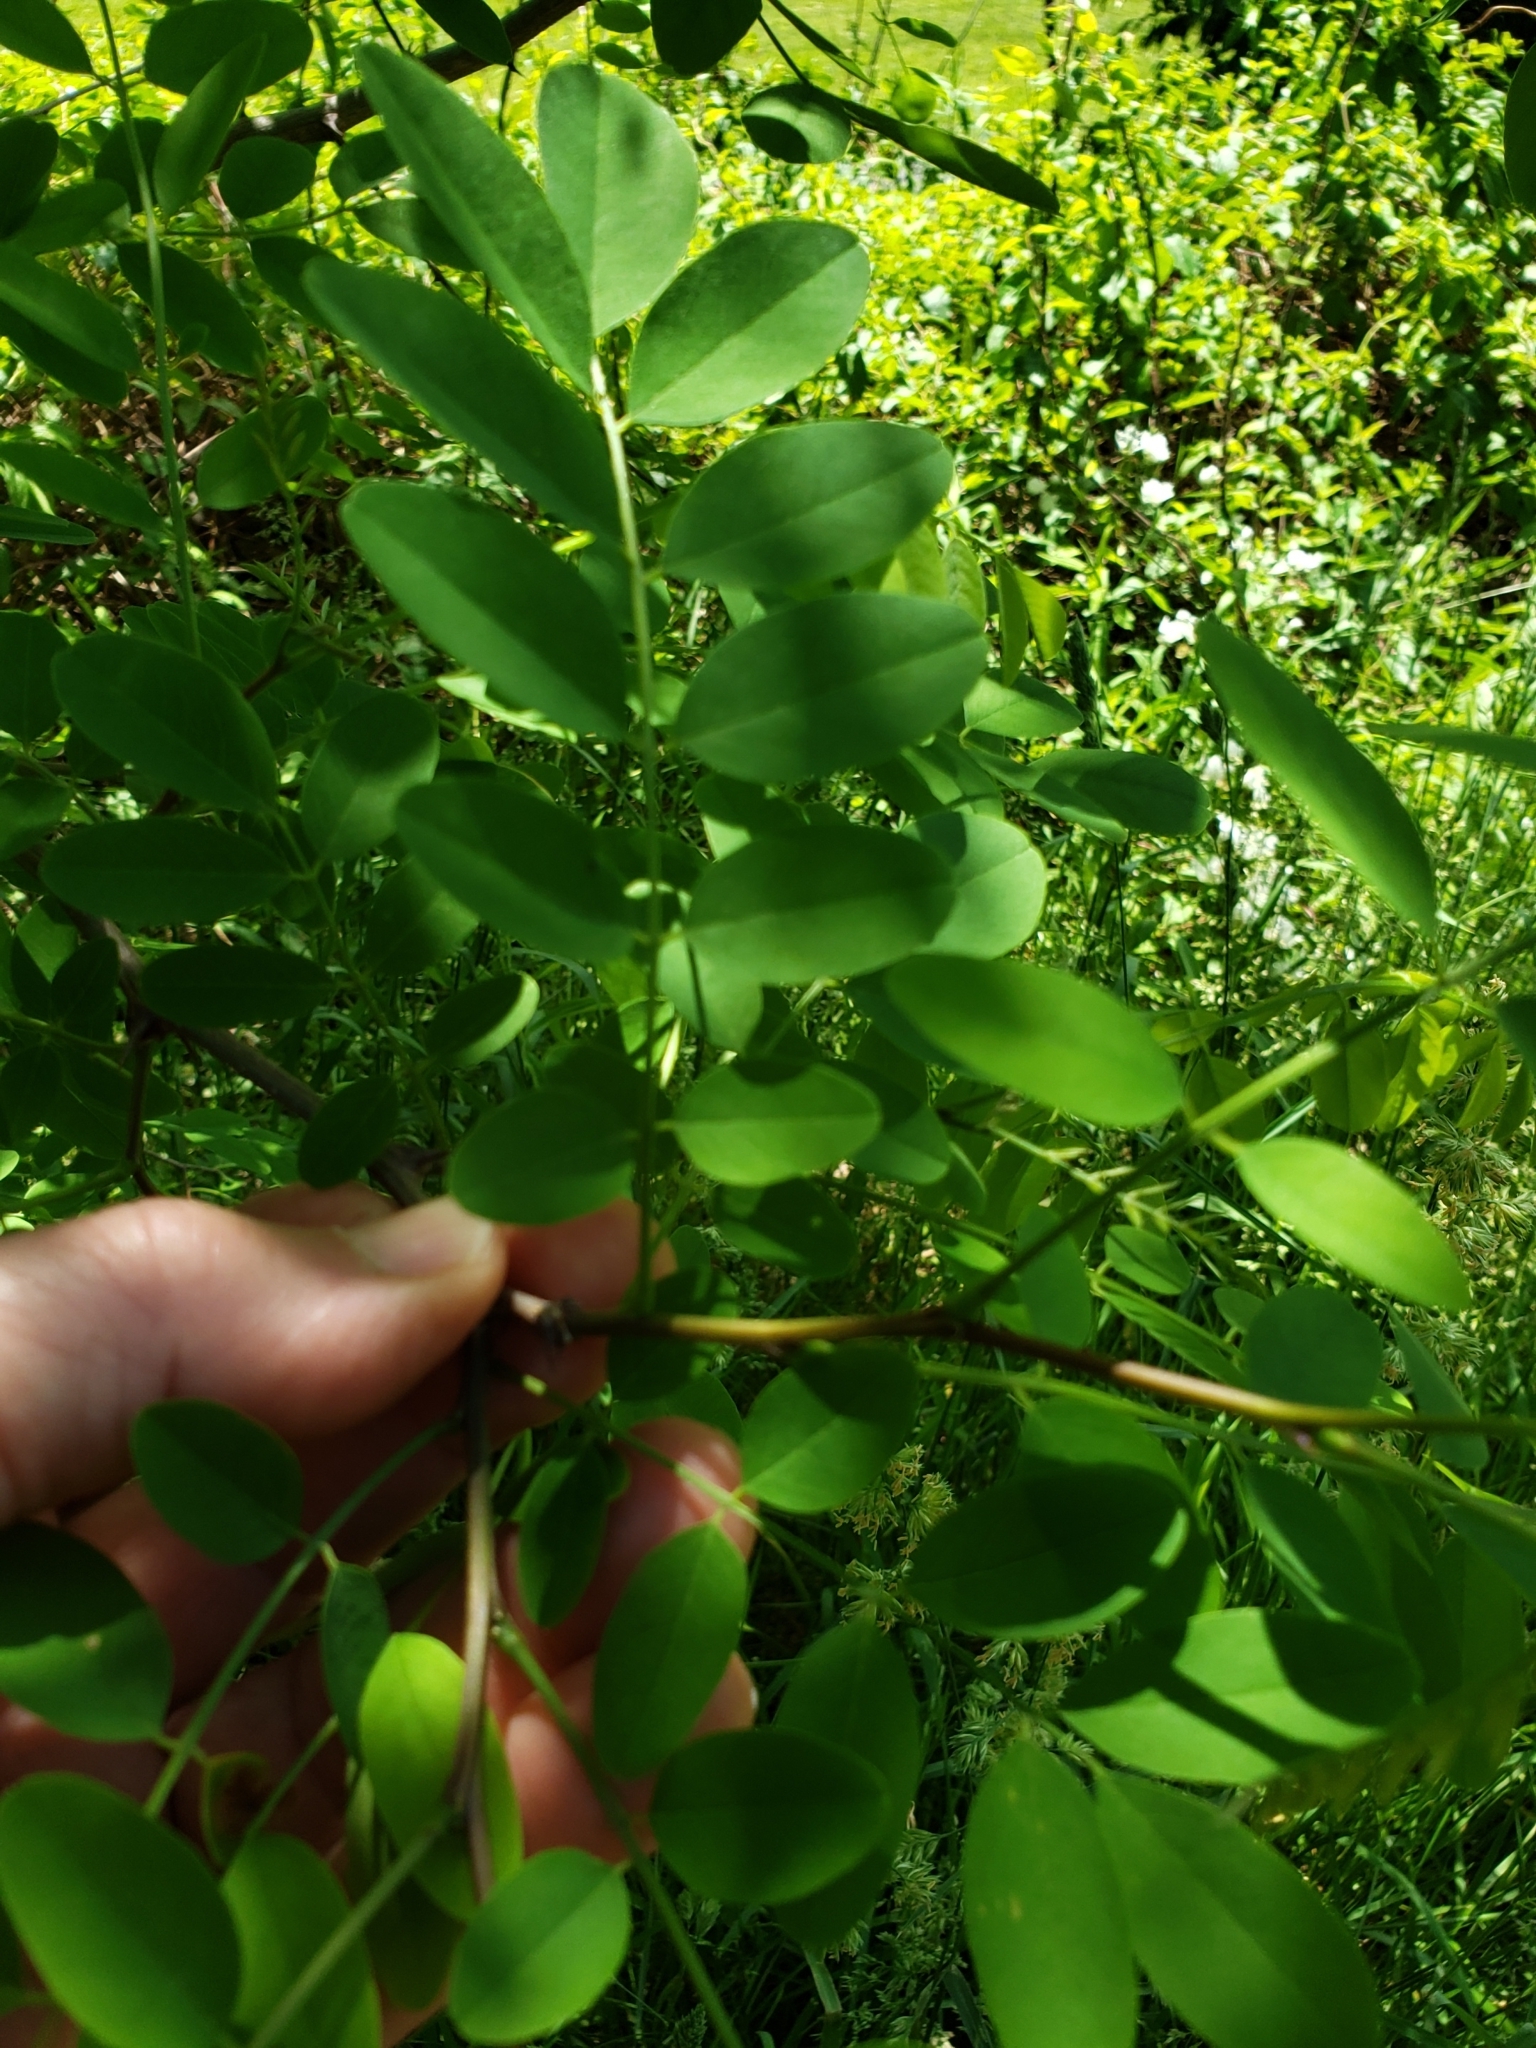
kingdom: Plantae
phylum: Tracheophyta
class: Magnoliopsida
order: Fabales
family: Fabaceae
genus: Robinia
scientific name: Robinia pseudoacacia
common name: Black locust
